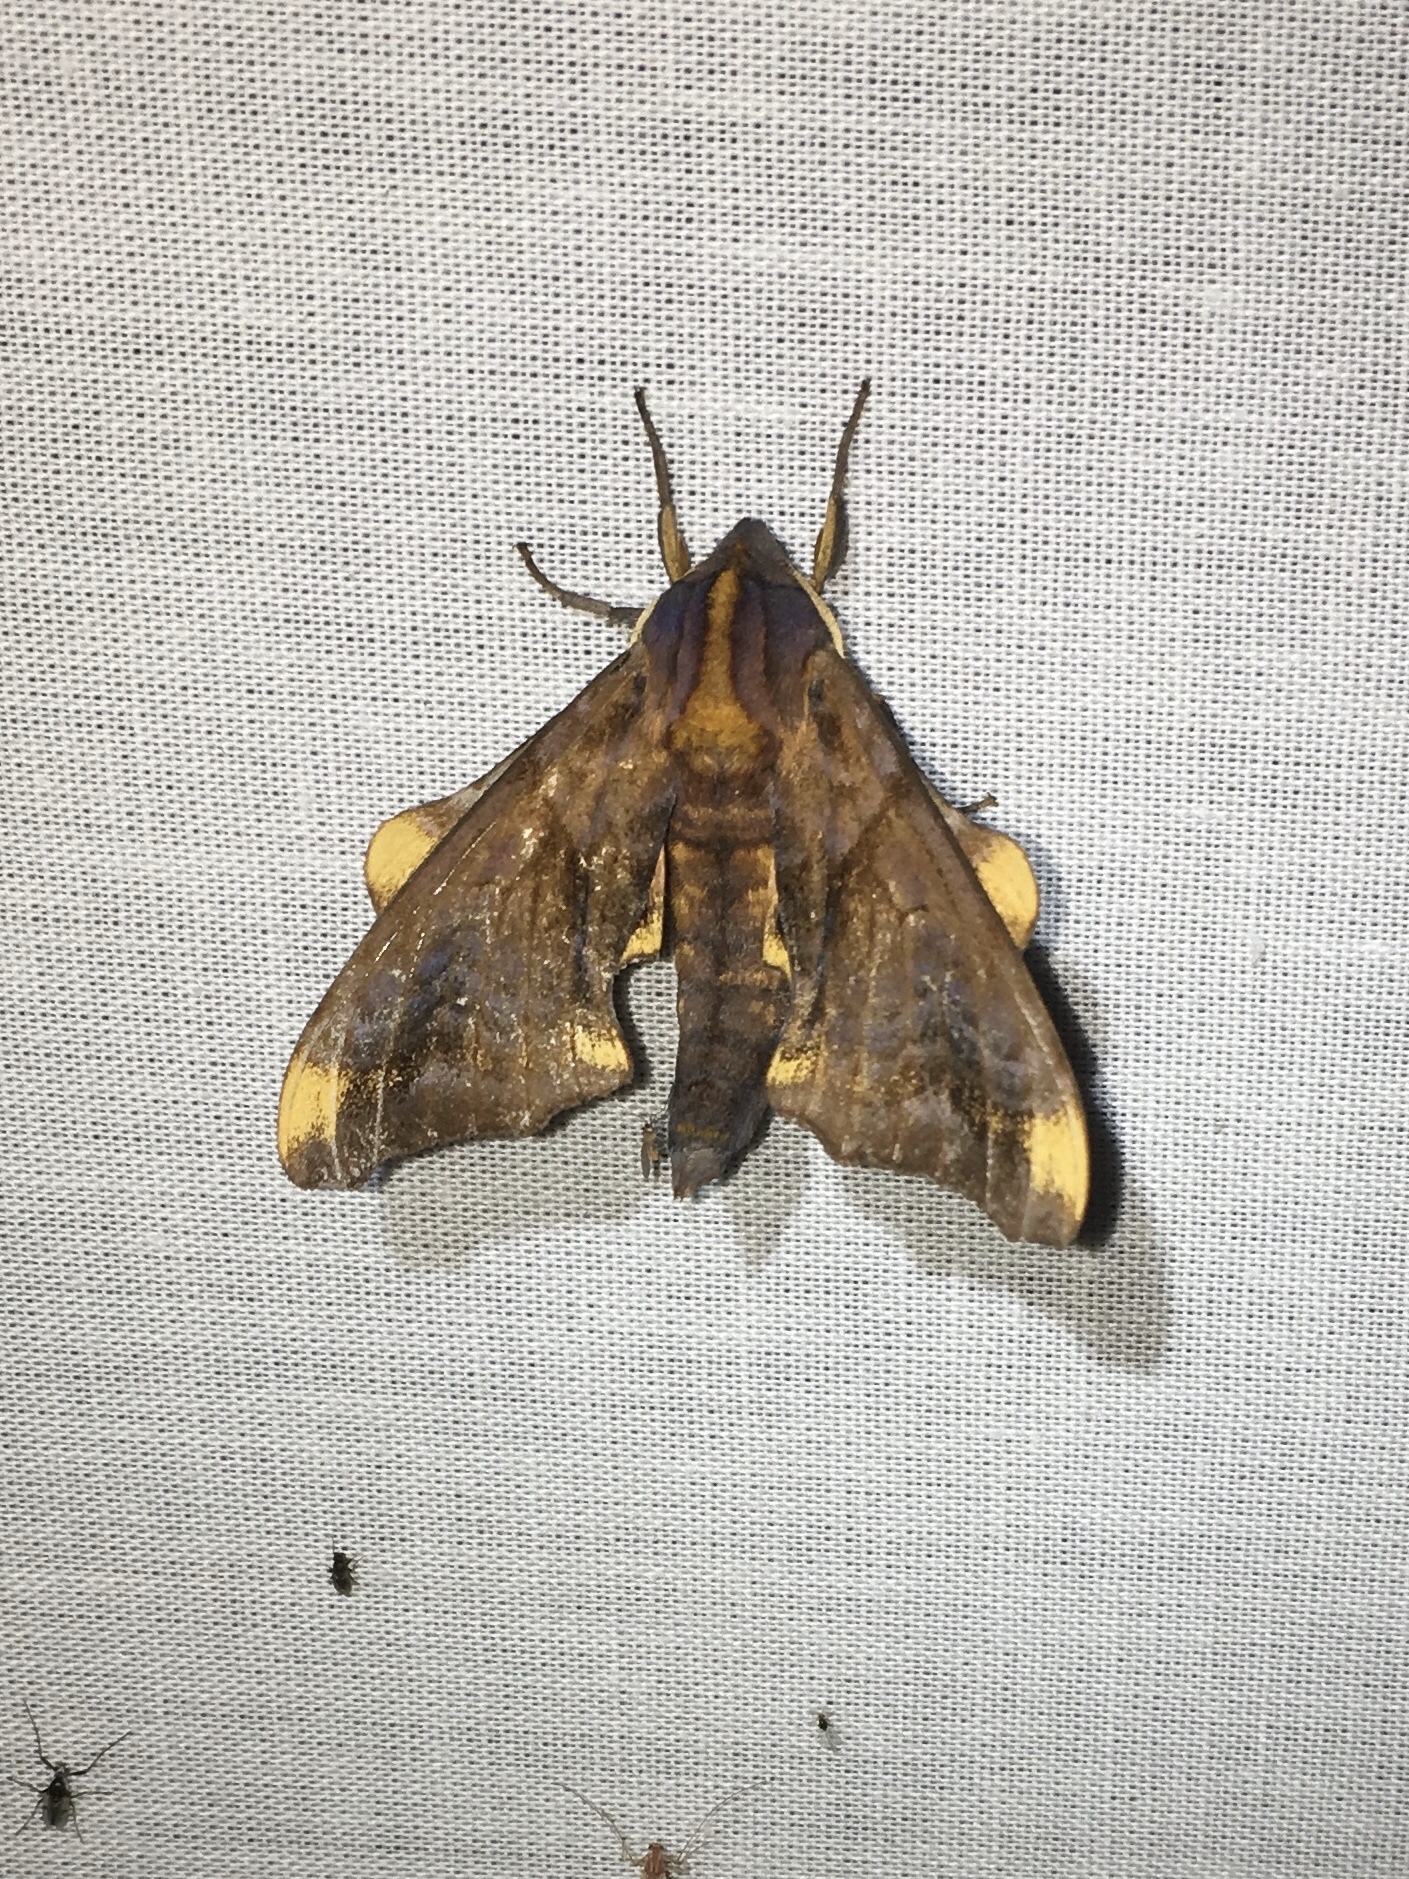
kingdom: Animalia
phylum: Arthropoda
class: Insecta
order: Lepidoptera
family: Sphingidae
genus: Paonias
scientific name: Paonias myops
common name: Small-eyed sphinx
